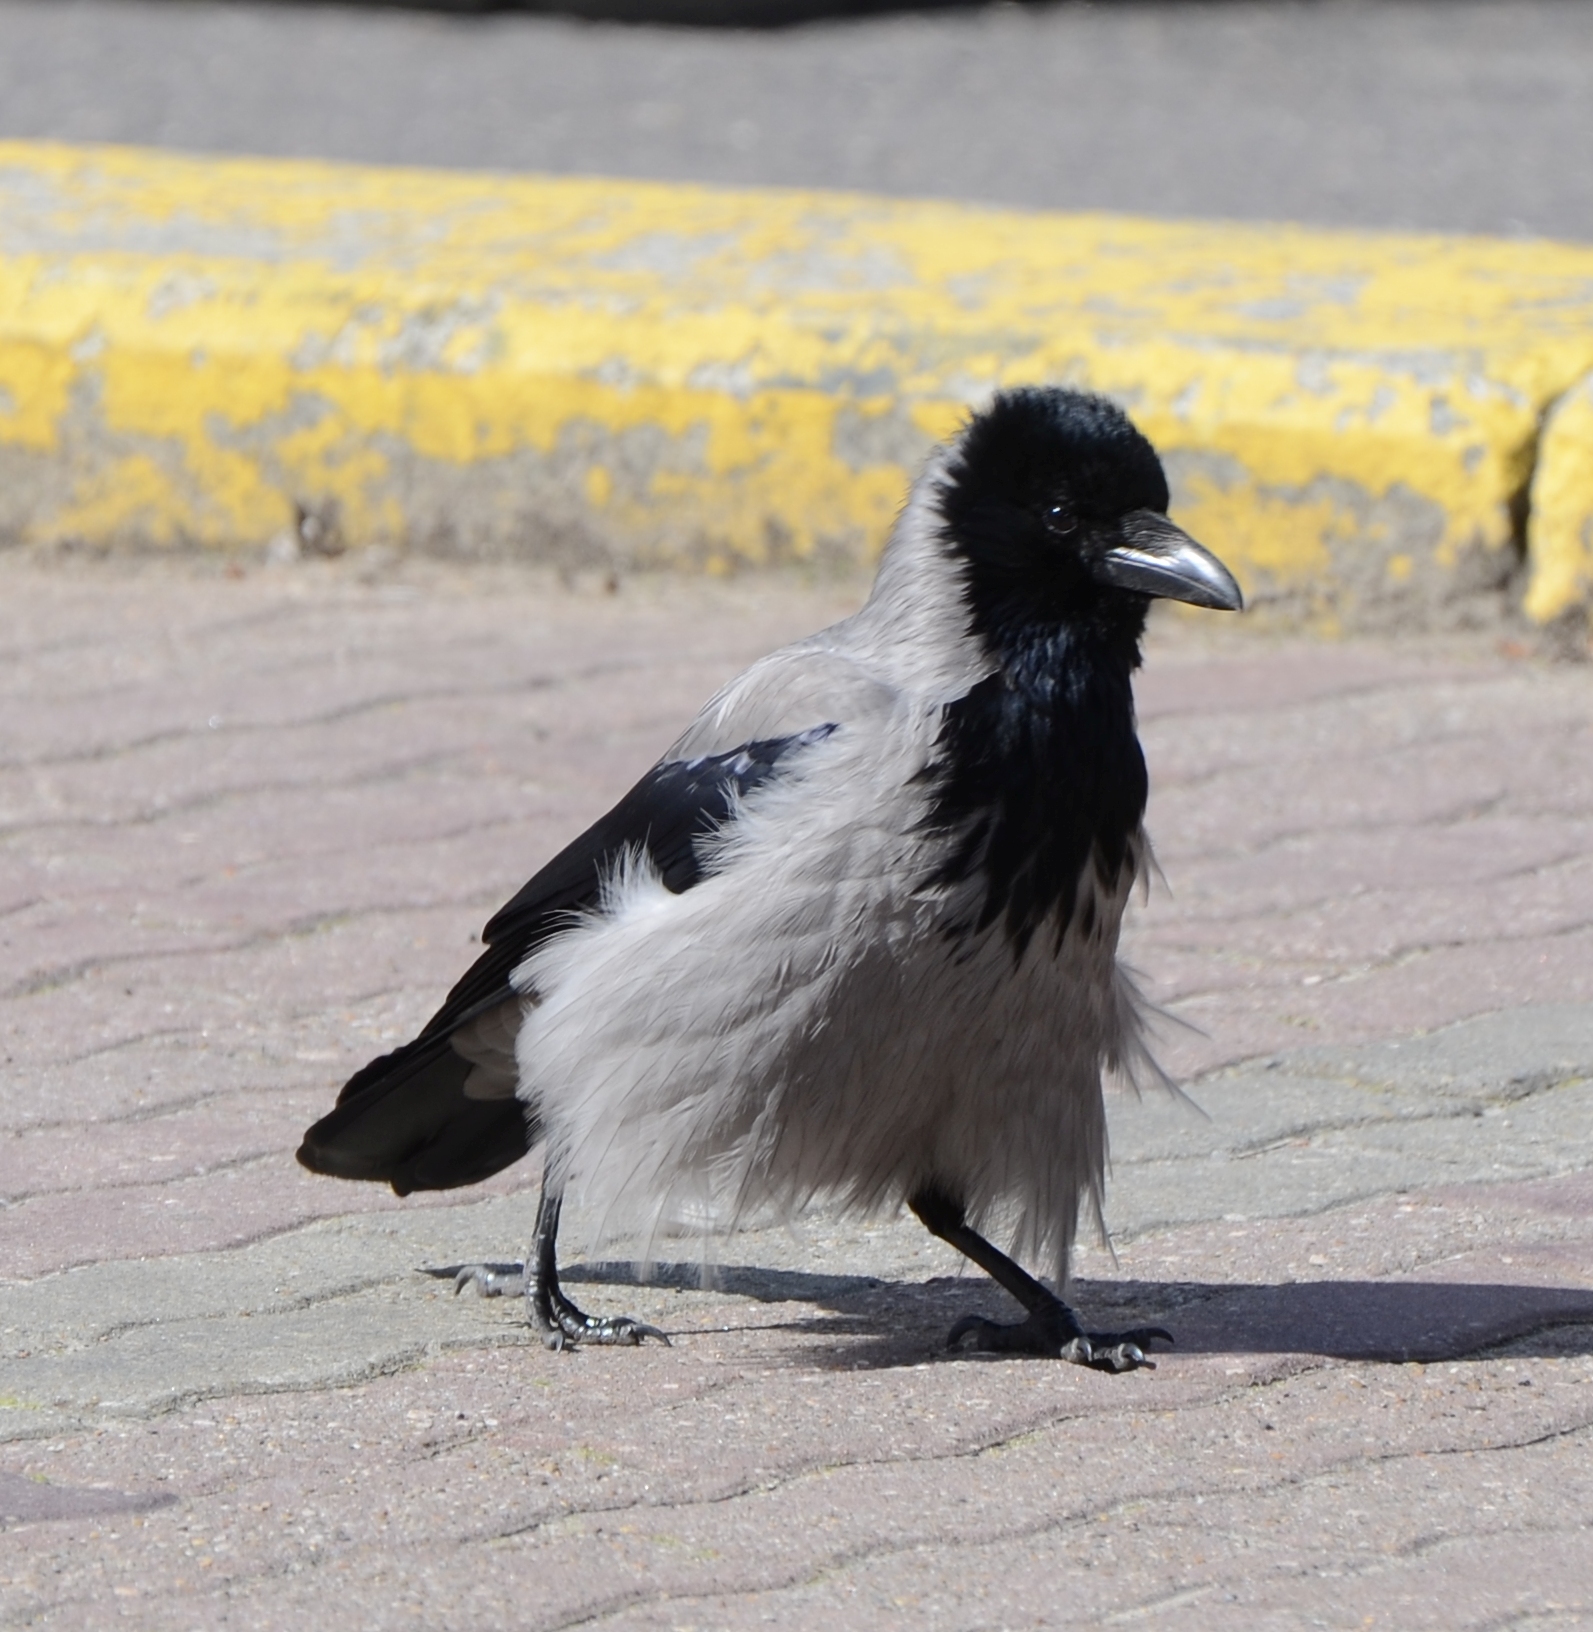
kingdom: Animalia
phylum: Chordata
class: Aves
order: Passeriformes
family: Corvidae
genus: Corvus
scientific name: Corvus cornix
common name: Hooded crow
